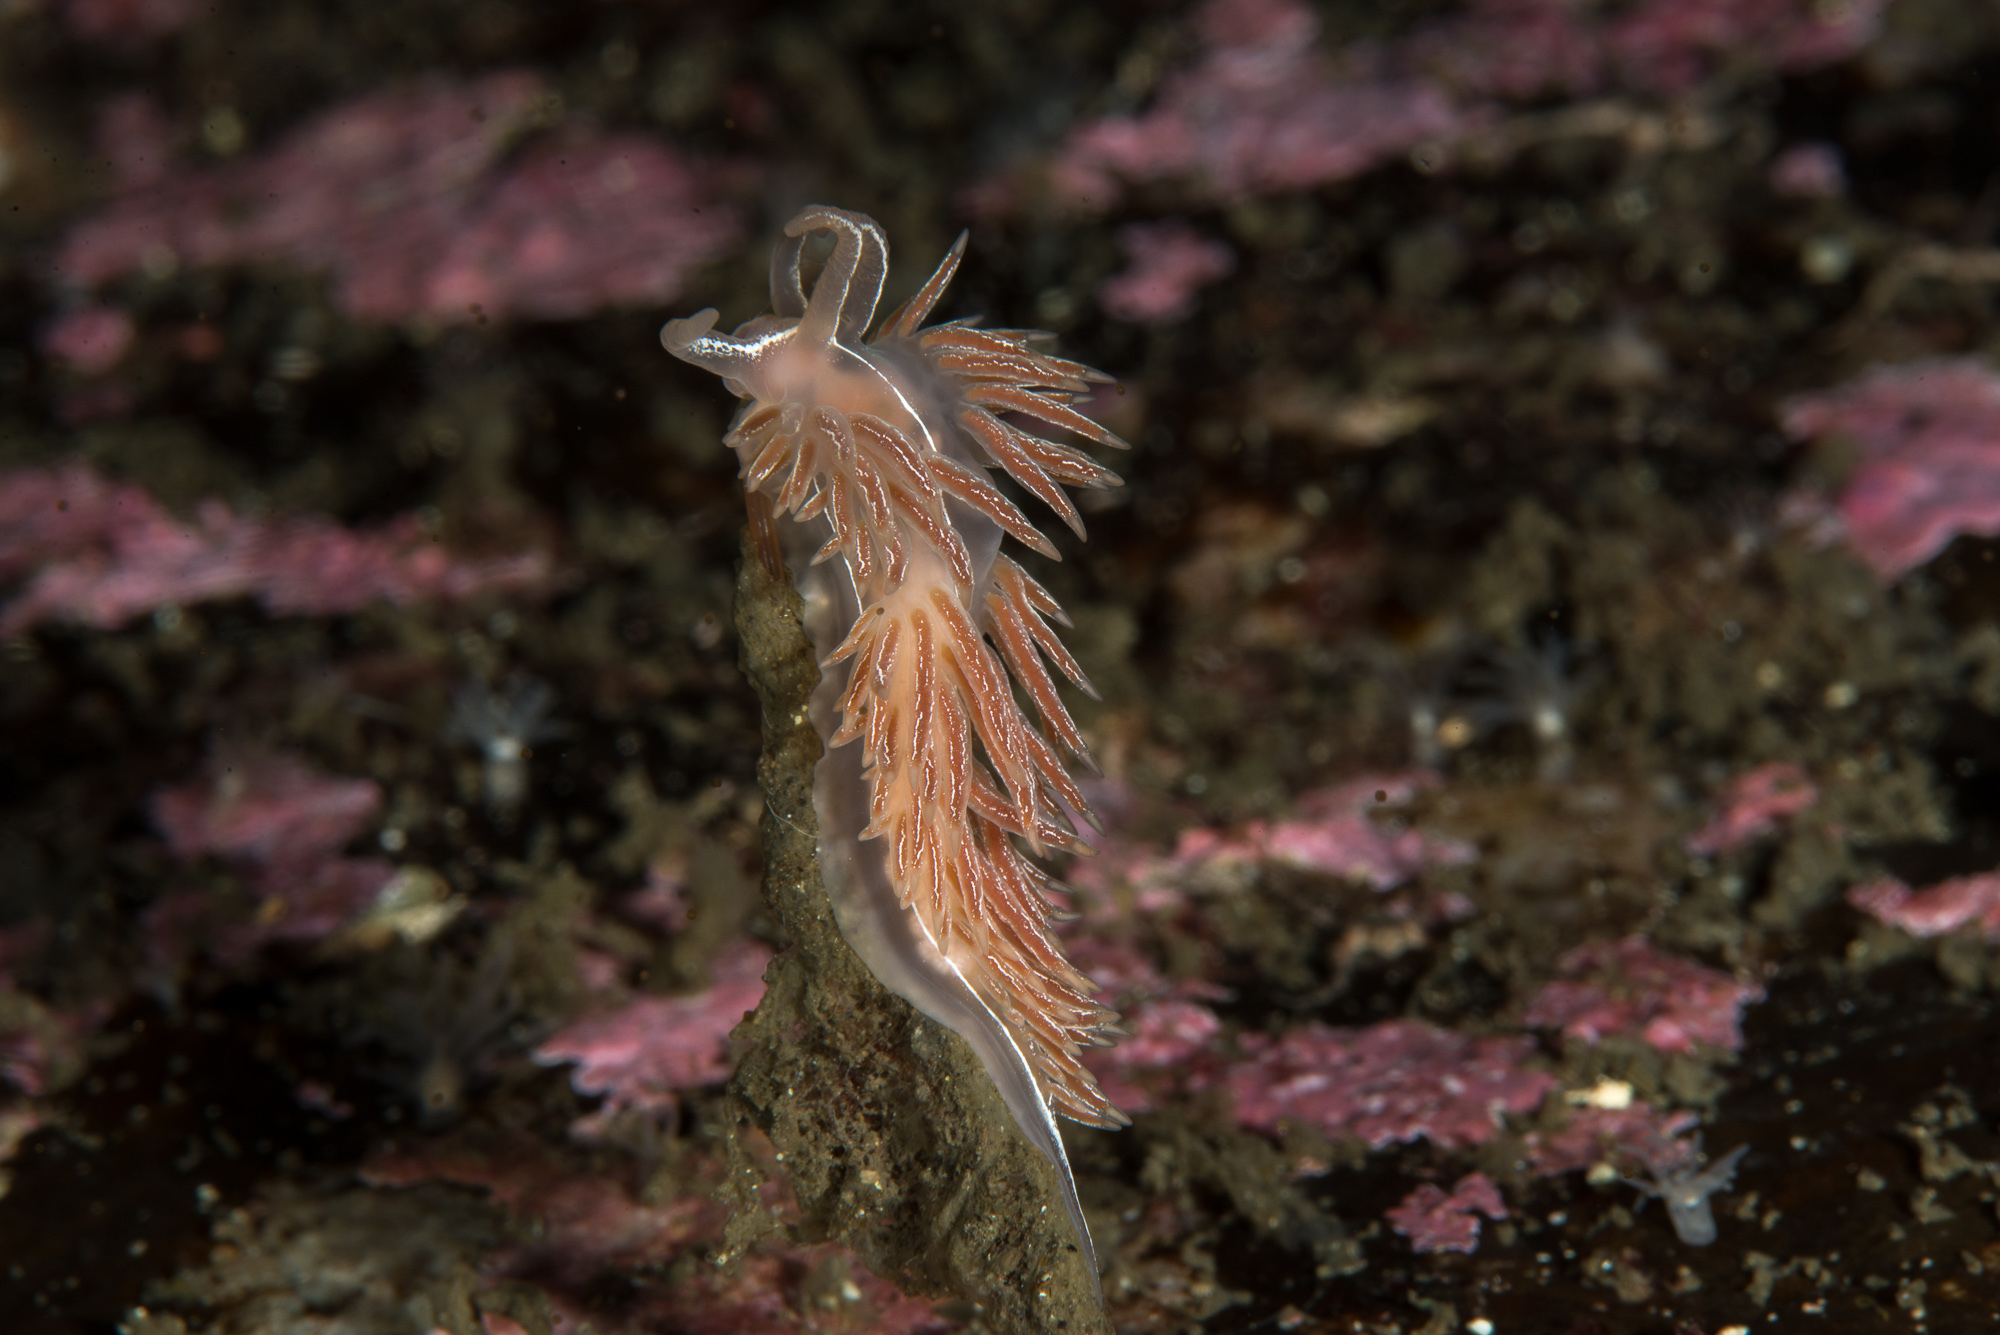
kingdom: Animalia
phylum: Mollusca
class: Gastropoda
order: Nudibranchia
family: Coryphellidae
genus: Coryphella
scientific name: Coryphella chriskaugei
